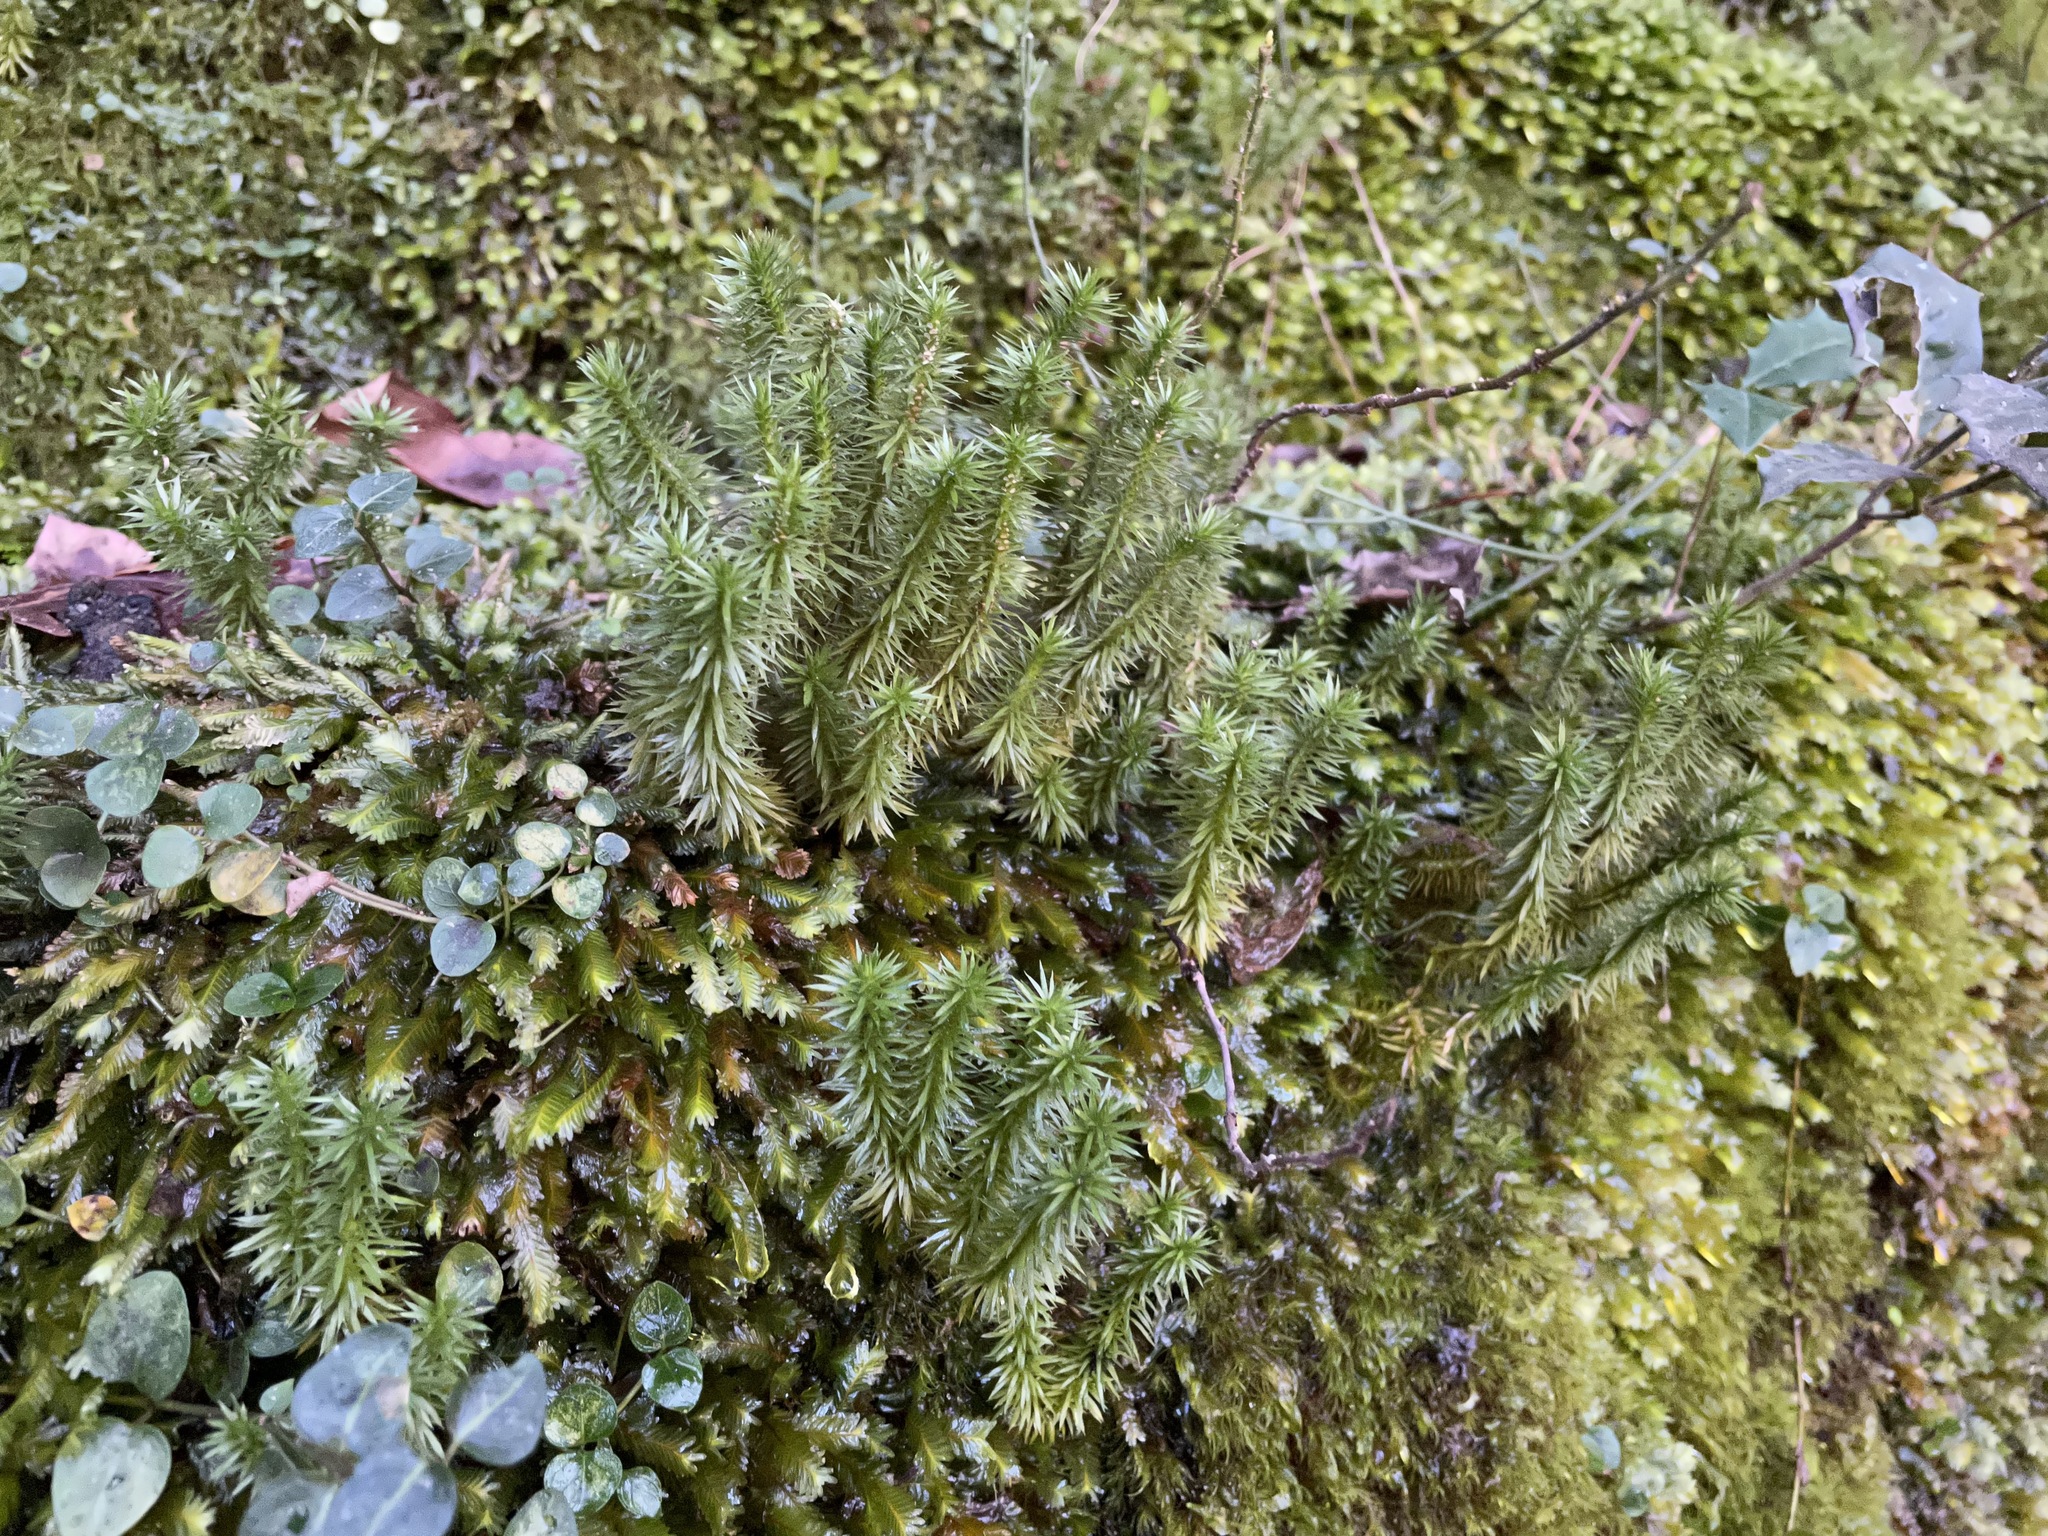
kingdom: Plantae
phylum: Tracheophyta
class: Lycopodiopsida
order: Lycopodiales
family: Lycopodiaceae
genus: Huperzia
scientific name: Huperzia porophila
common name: Rock clubmoss
